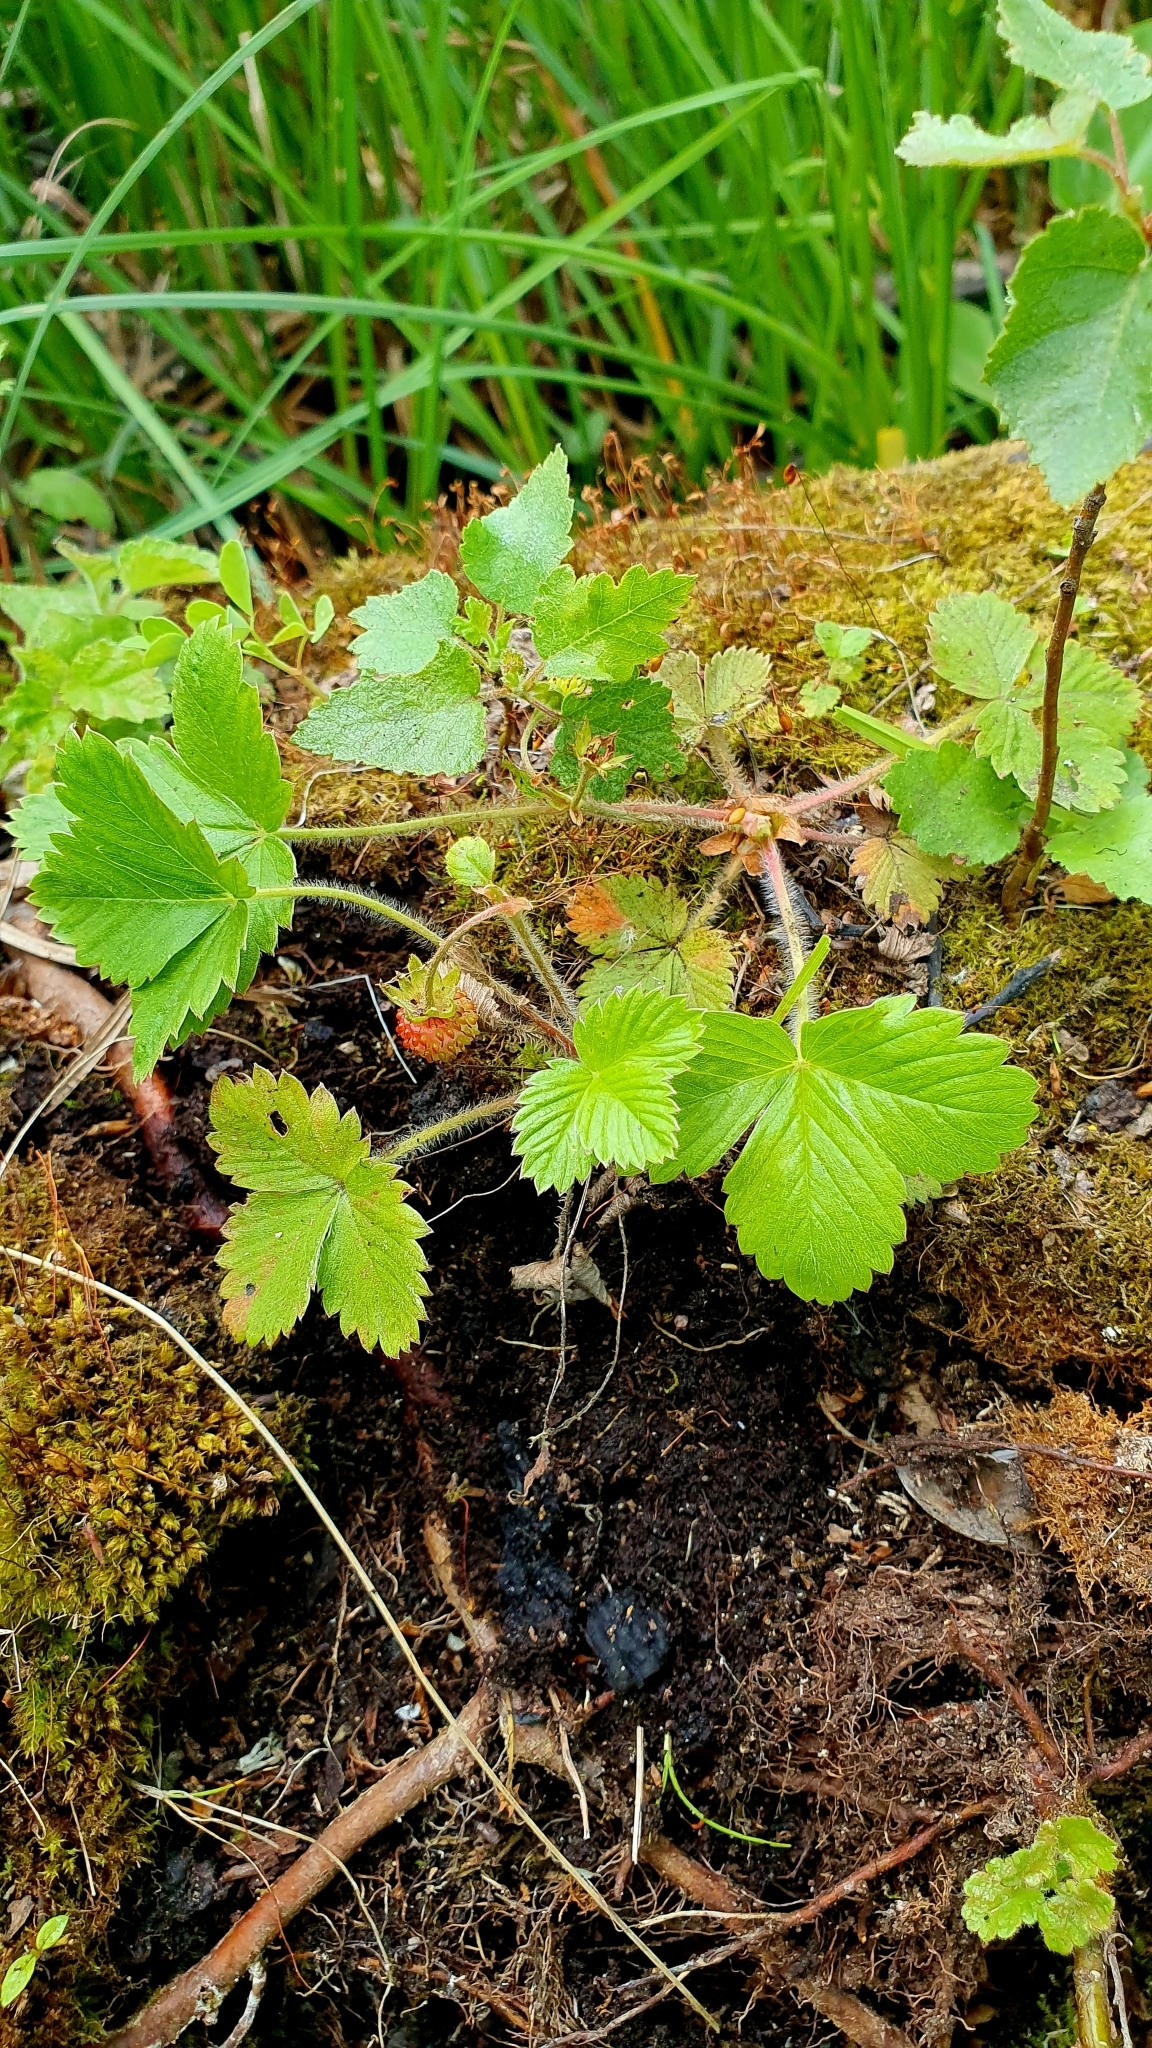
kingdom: Plantae
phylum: Tracheophyta
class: Magnoliopsida
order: Rosales
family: Rosaceae
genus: Fragaria
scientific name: Fragaria vesca
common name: Wild strawberry
